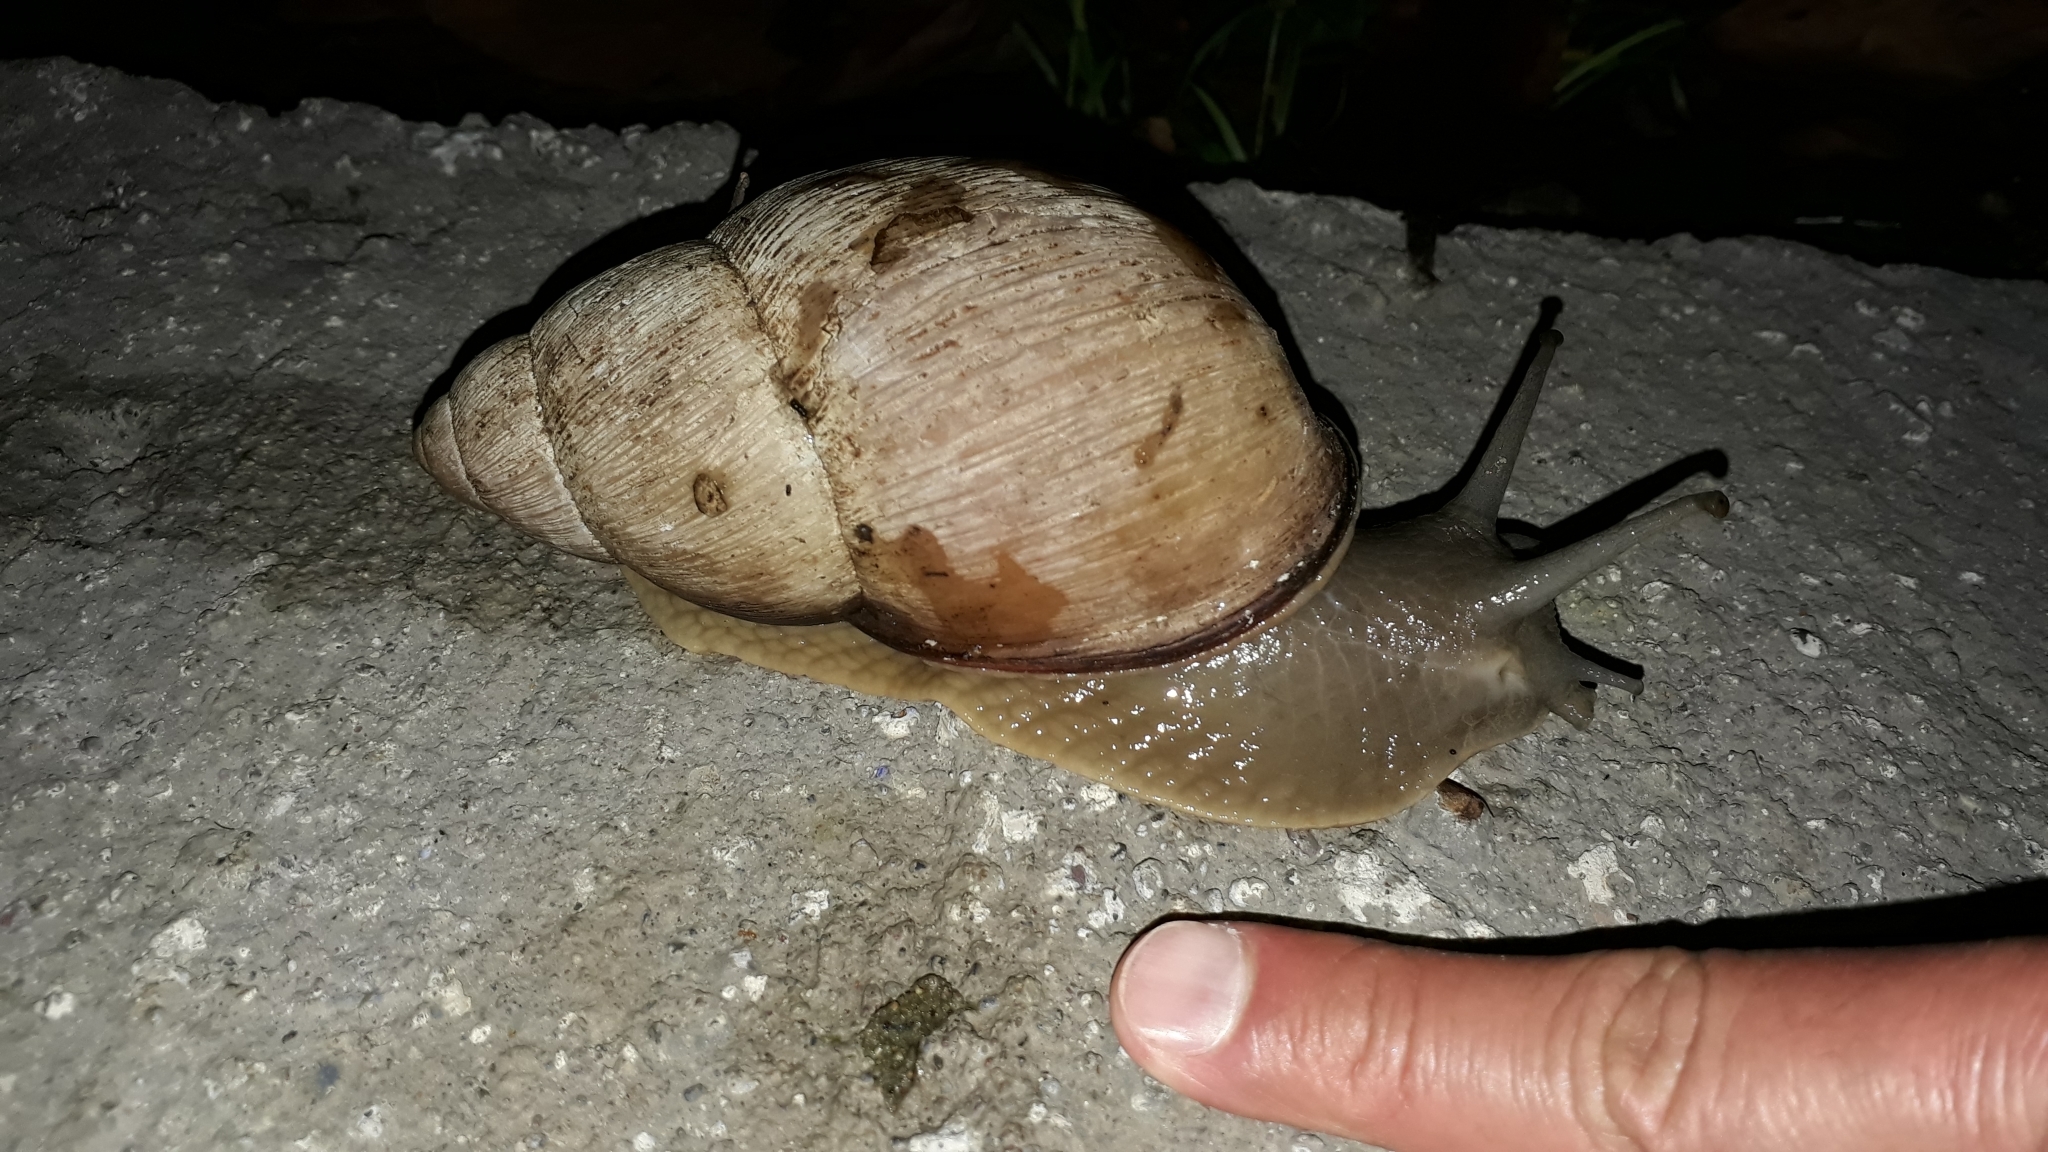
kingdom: Animalia
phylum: Mollusca
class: Gastropoda
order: Stylommatophora
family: Strophocheilidae
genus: Megalobulimus
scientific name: Megalobulimus oblongus
